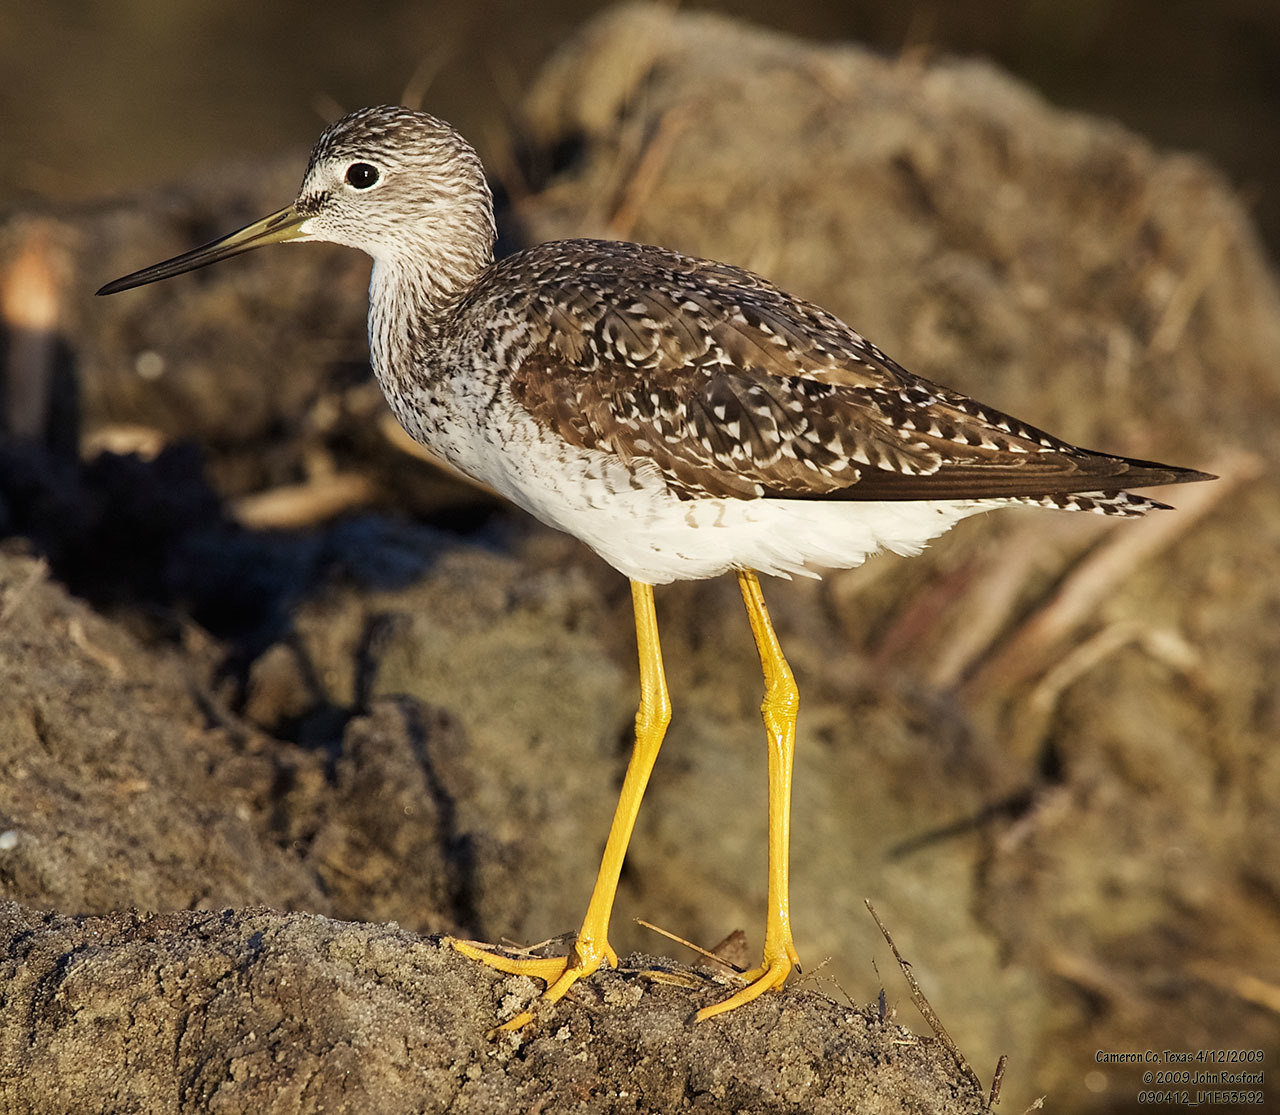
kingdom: Animalia
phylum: Chordata
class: Aves
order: Charadriiformes
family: Scolopacidae
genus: Tringa
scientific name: Tringa melanoleuca
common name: Greater yellowlegs
